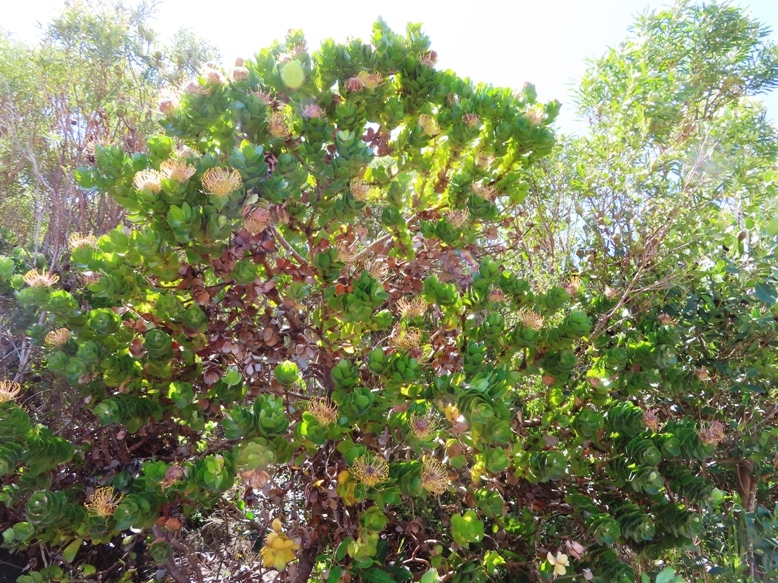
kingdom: Plantae
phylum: Tracheophyta
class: Magnoliopsida
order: Proteales
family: Proteaceae
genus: Leucospermum
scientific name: Leucospermum patersonii
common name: False tree pincushion
